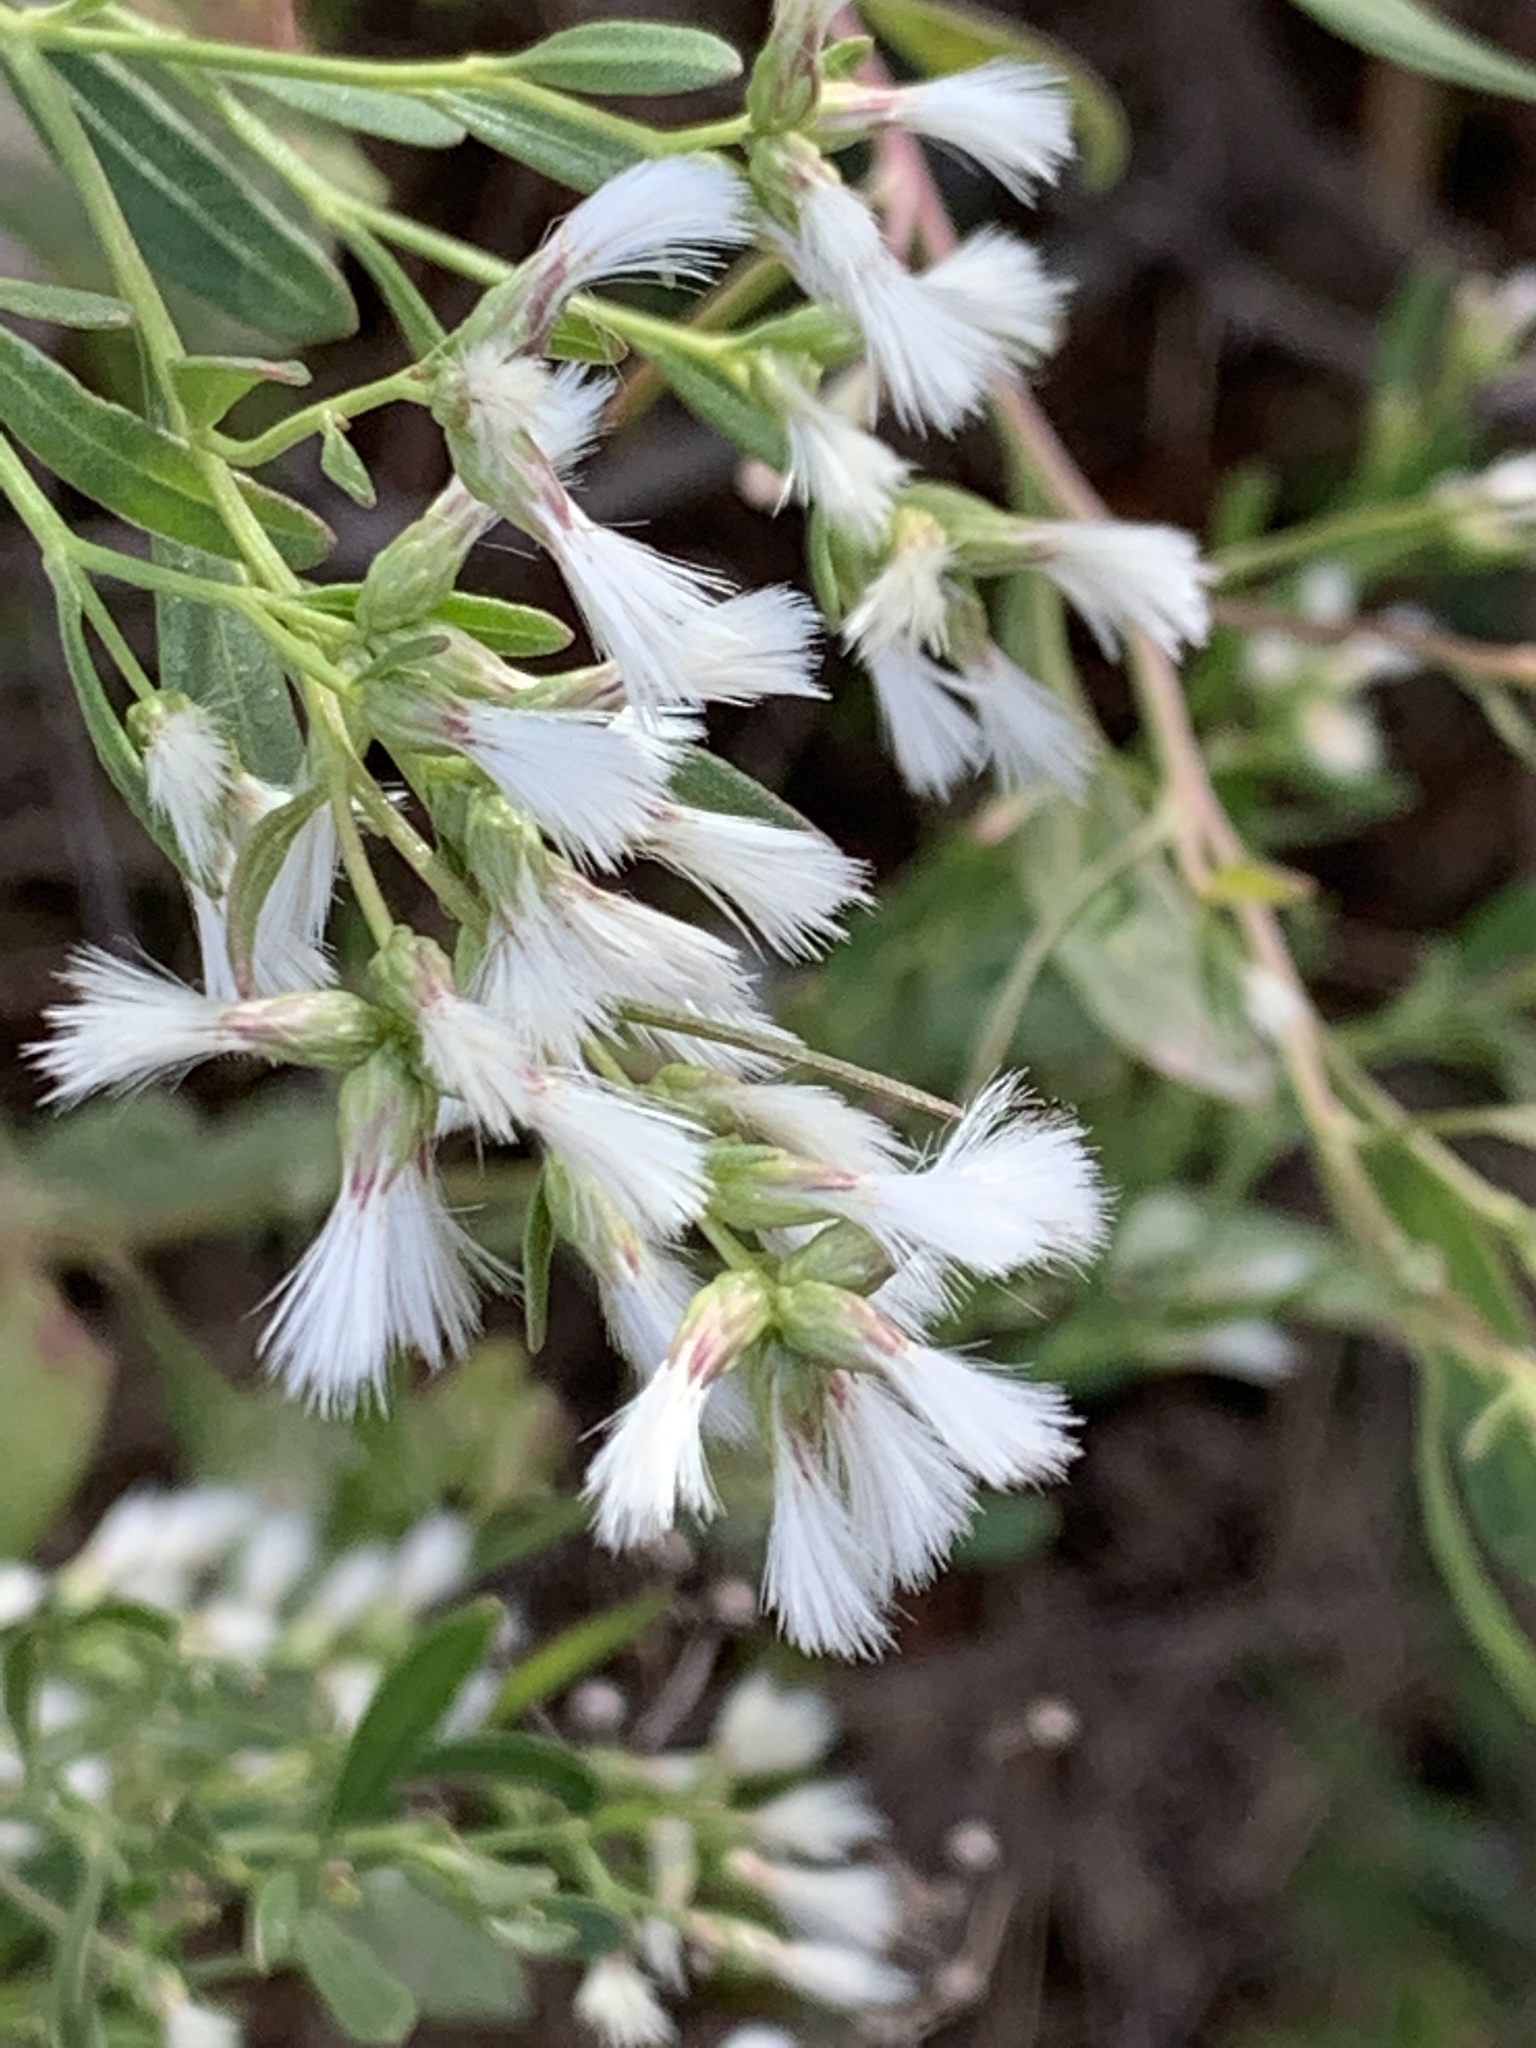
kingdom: Plantae
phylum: Tracheophyta
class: Magnoliopsida
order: Asterales
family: Asteraceae
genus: Baccharis
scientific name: Baccharis halimifolia
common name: Eastern baccharis
